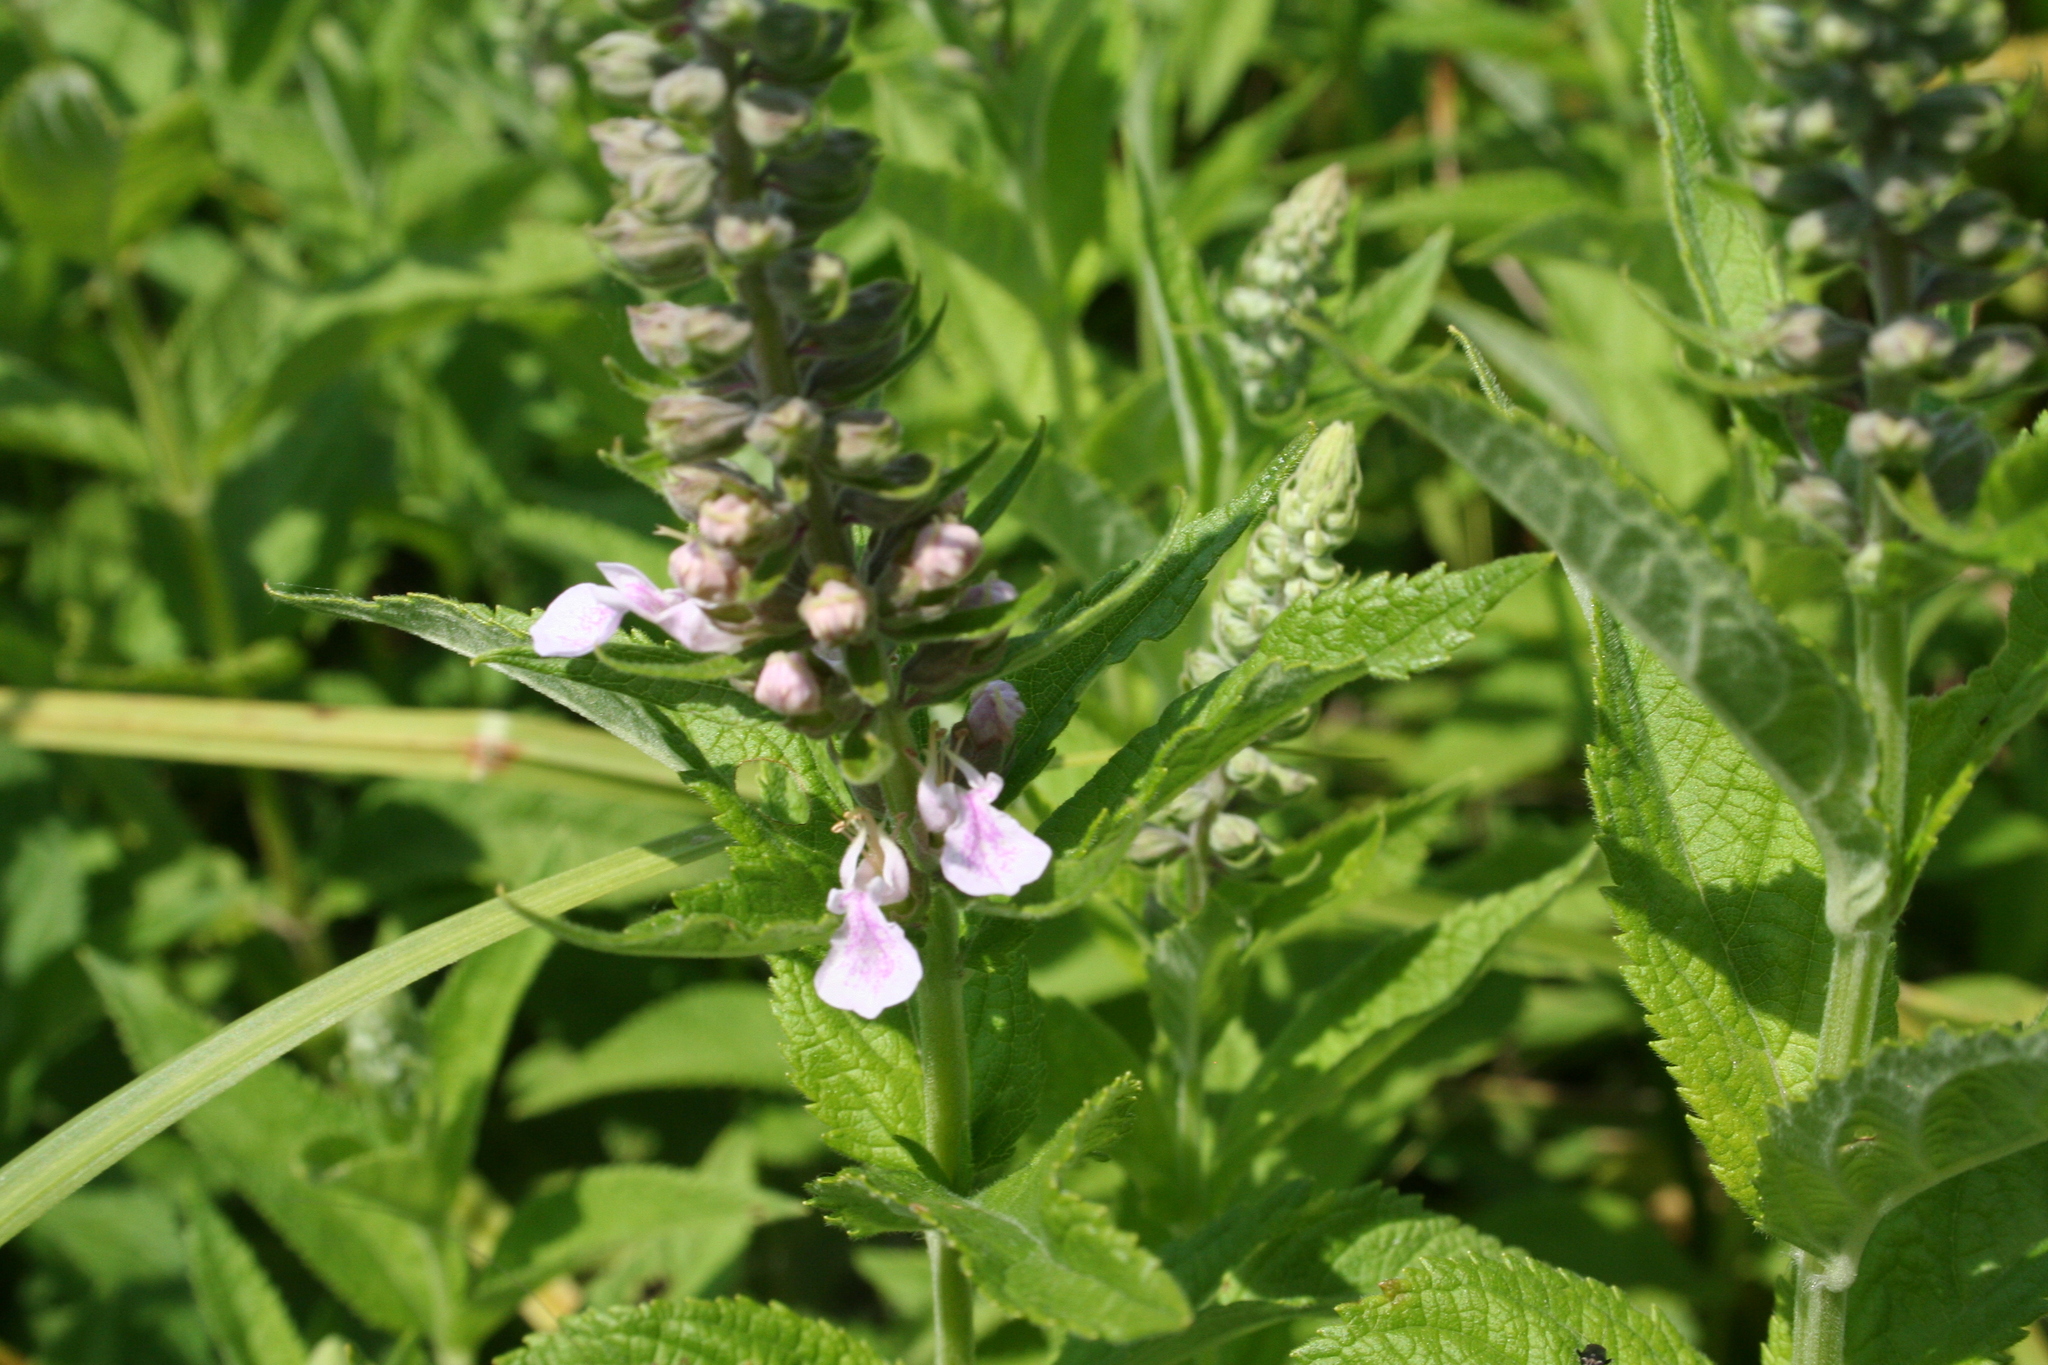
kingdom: Plantae
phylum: Tracheophyta
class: Magnoliopsida
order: Lamiales
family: Lamiaceae
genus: Teucrium
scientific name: Teucrium canadense
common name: American germander
